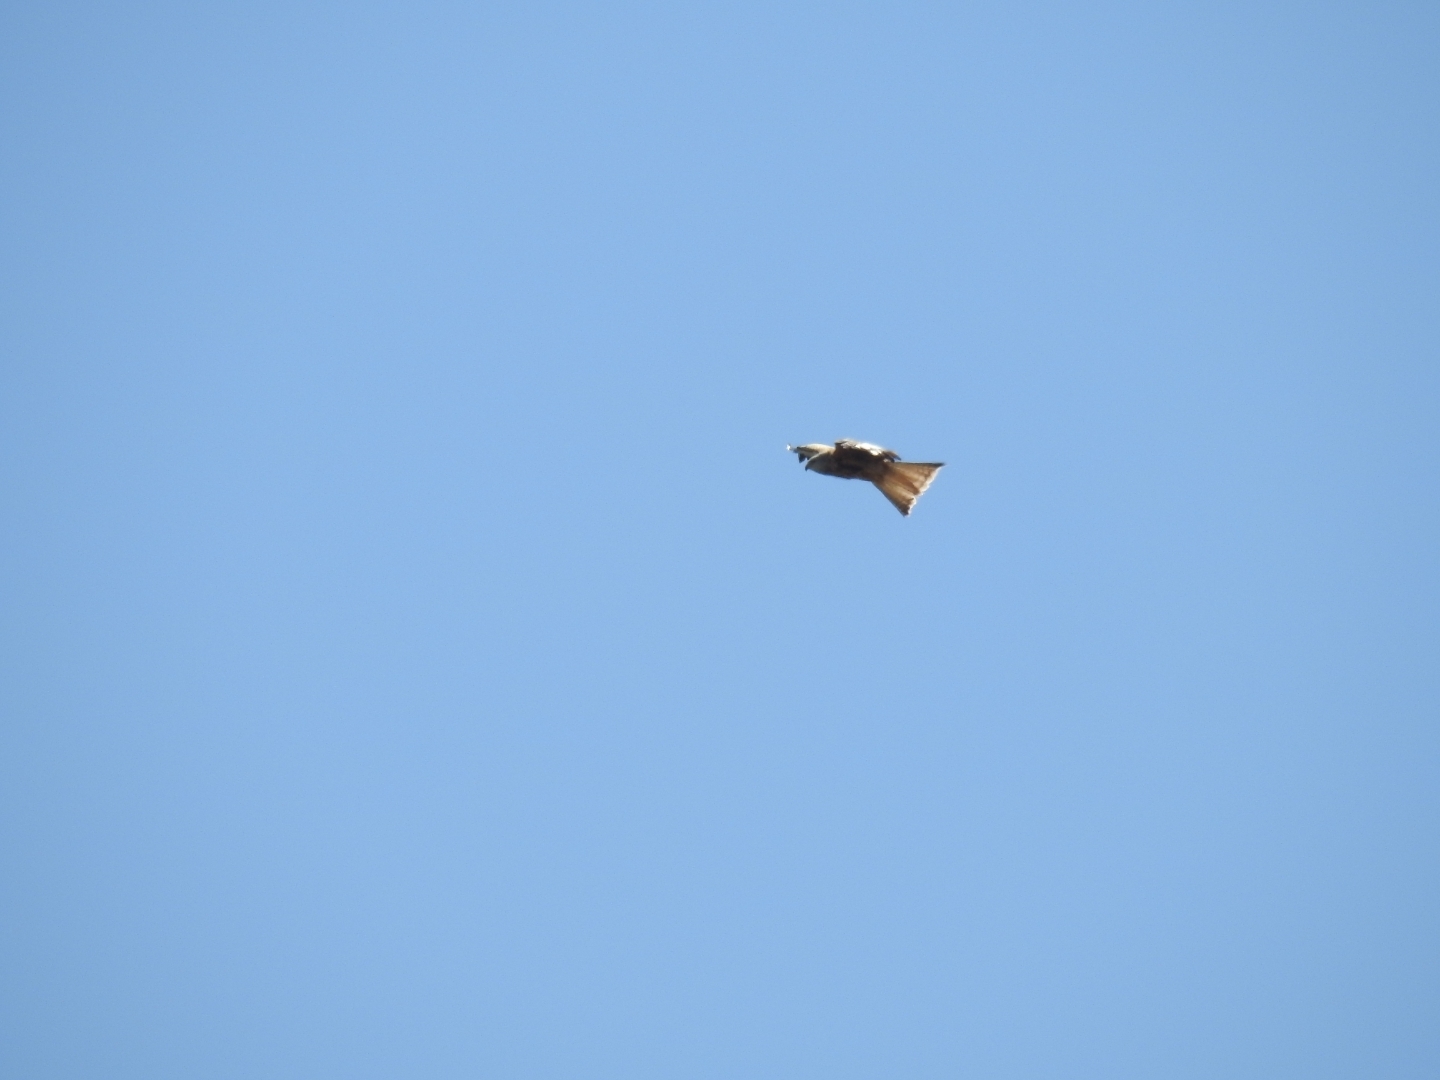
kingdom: Animalia
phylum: Chordata
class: Aves
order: Accipitriformes
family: Accipitridae
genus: Milvus
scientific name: Milvus milvus
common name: Red kite
